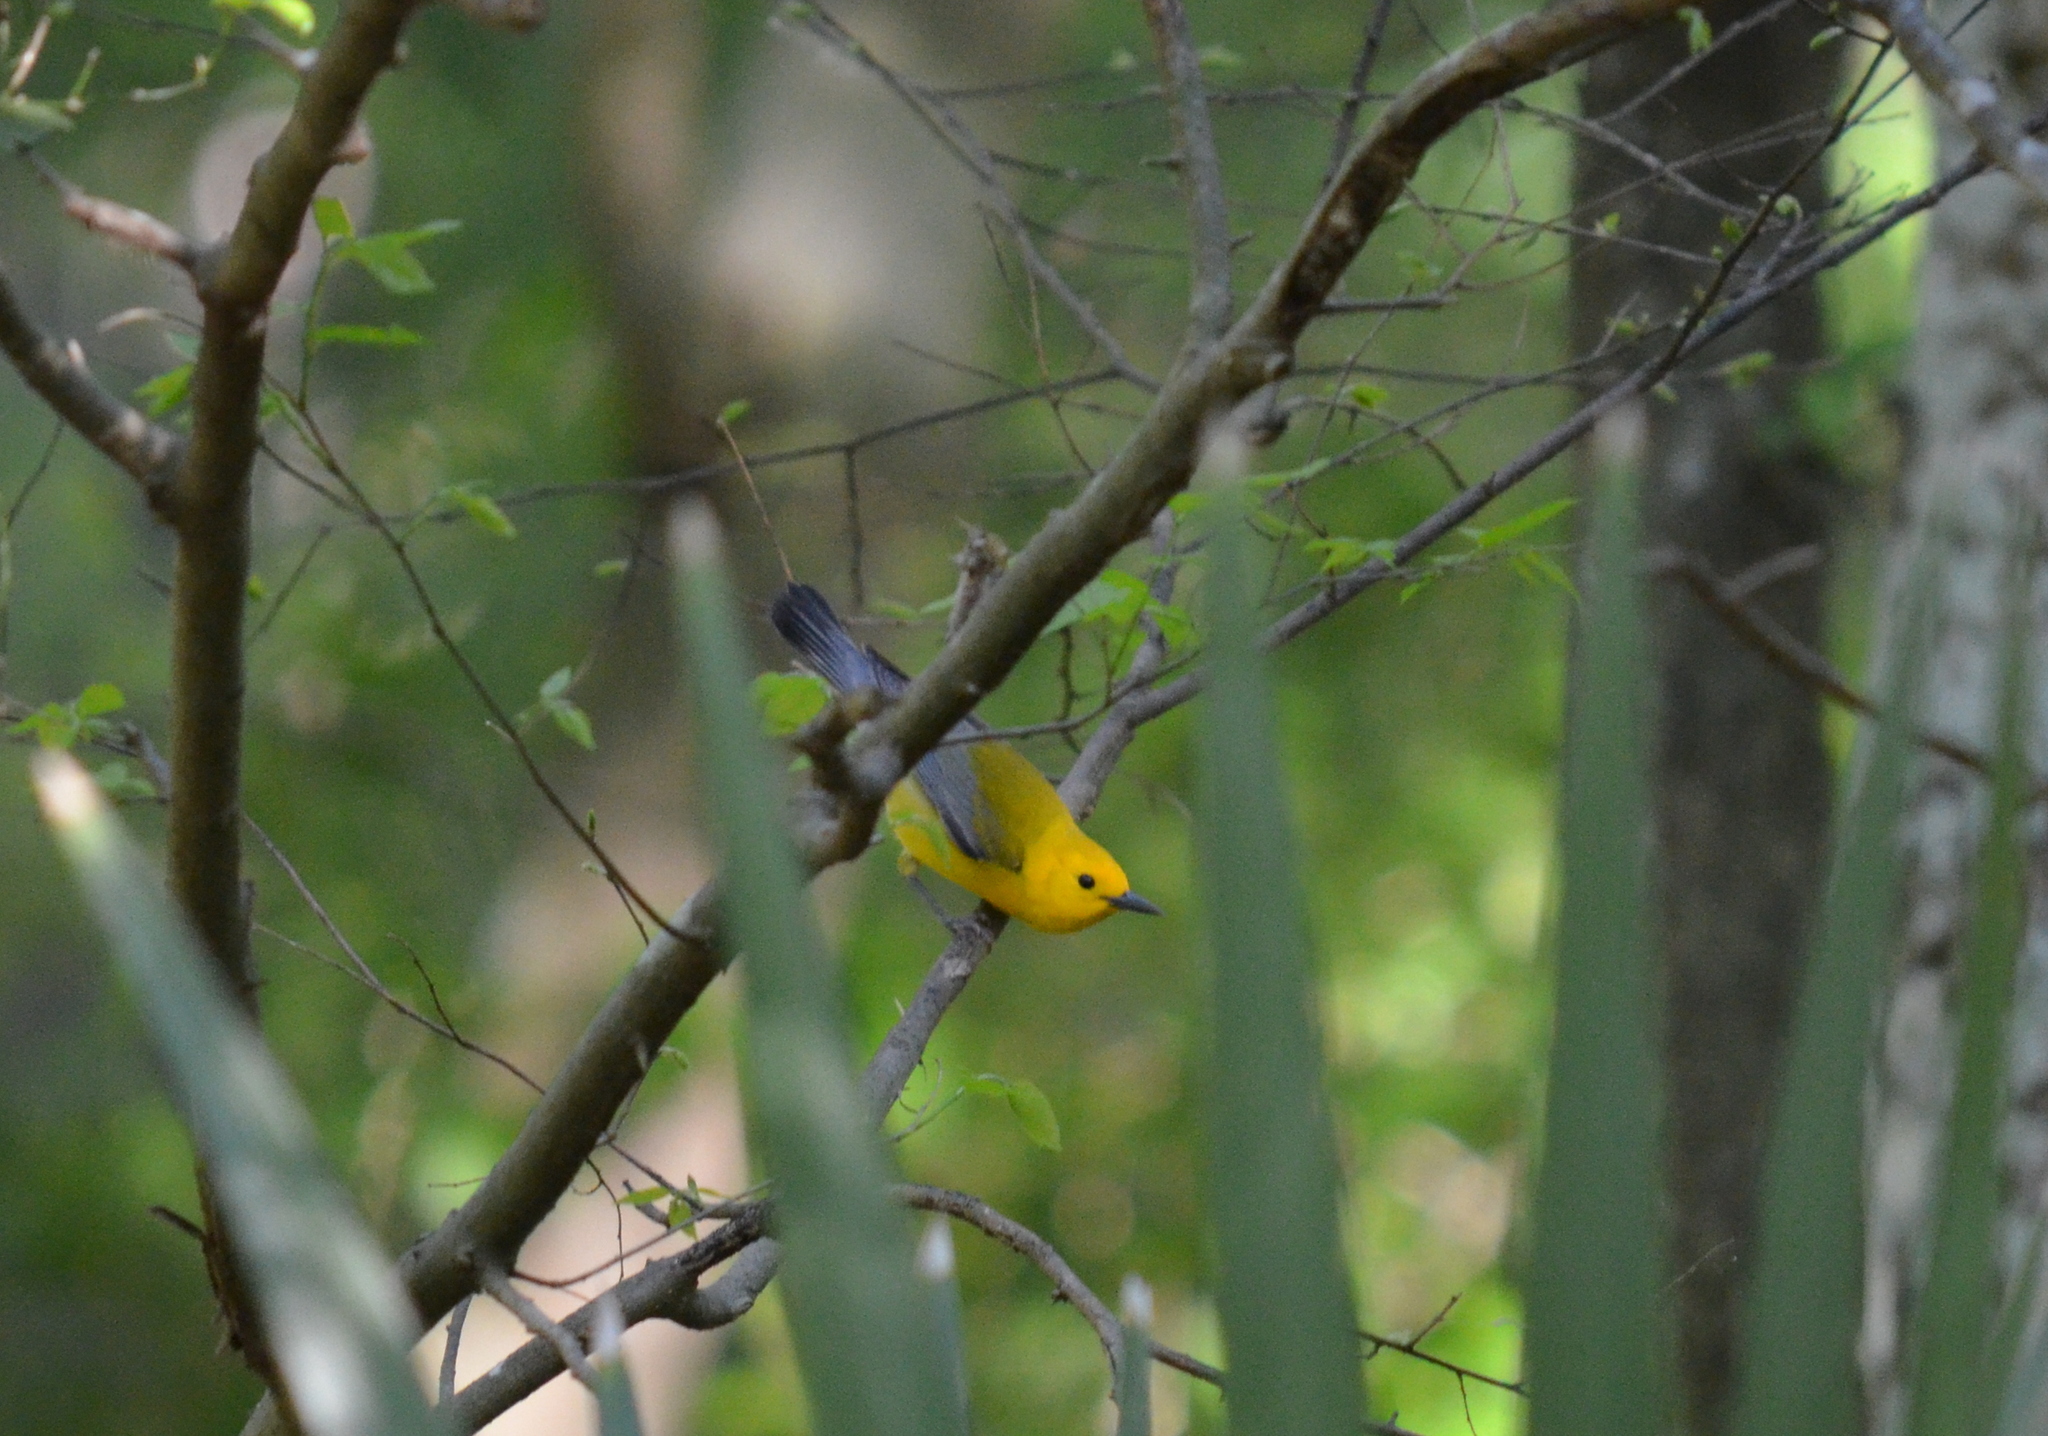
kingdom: Animalia
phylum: Chordata
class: Aves
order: Passeriformes
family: Parulidae
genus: Protonotaria
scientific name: Protonotaria citrea
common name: Prothonotary warbler
